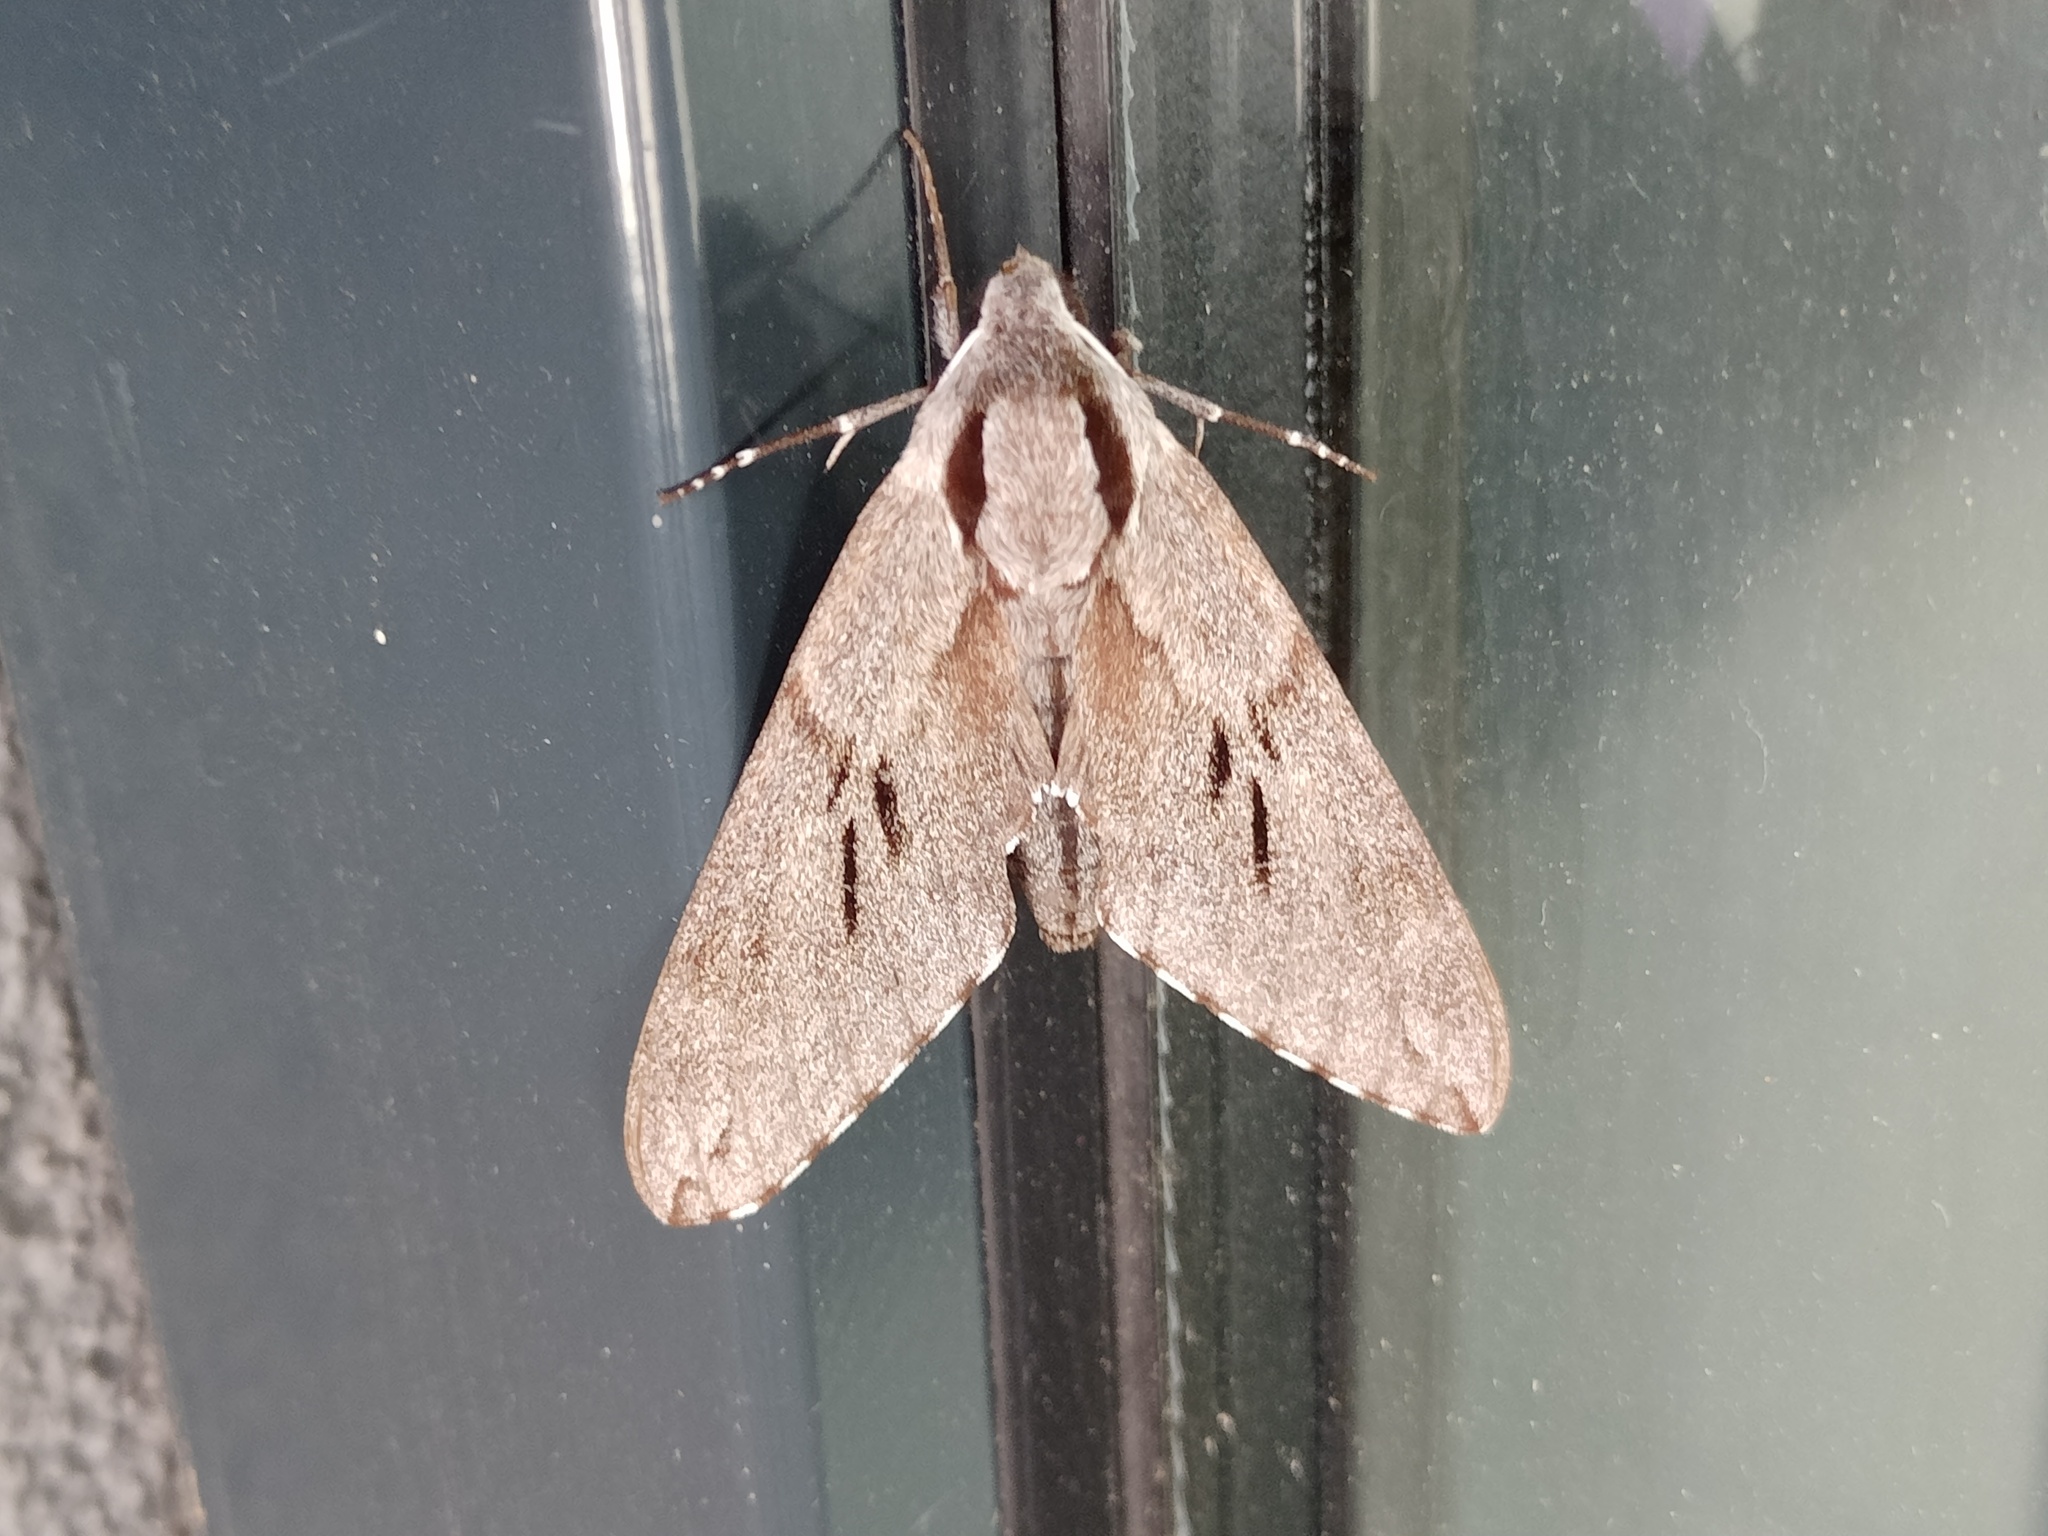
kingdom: Animalia
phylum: Arthropoda
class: Insecta
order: Lepidoptera
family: Sphingidae
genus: Sphinx
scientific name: Sphinx pinastri
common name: Pine hawk-moth
